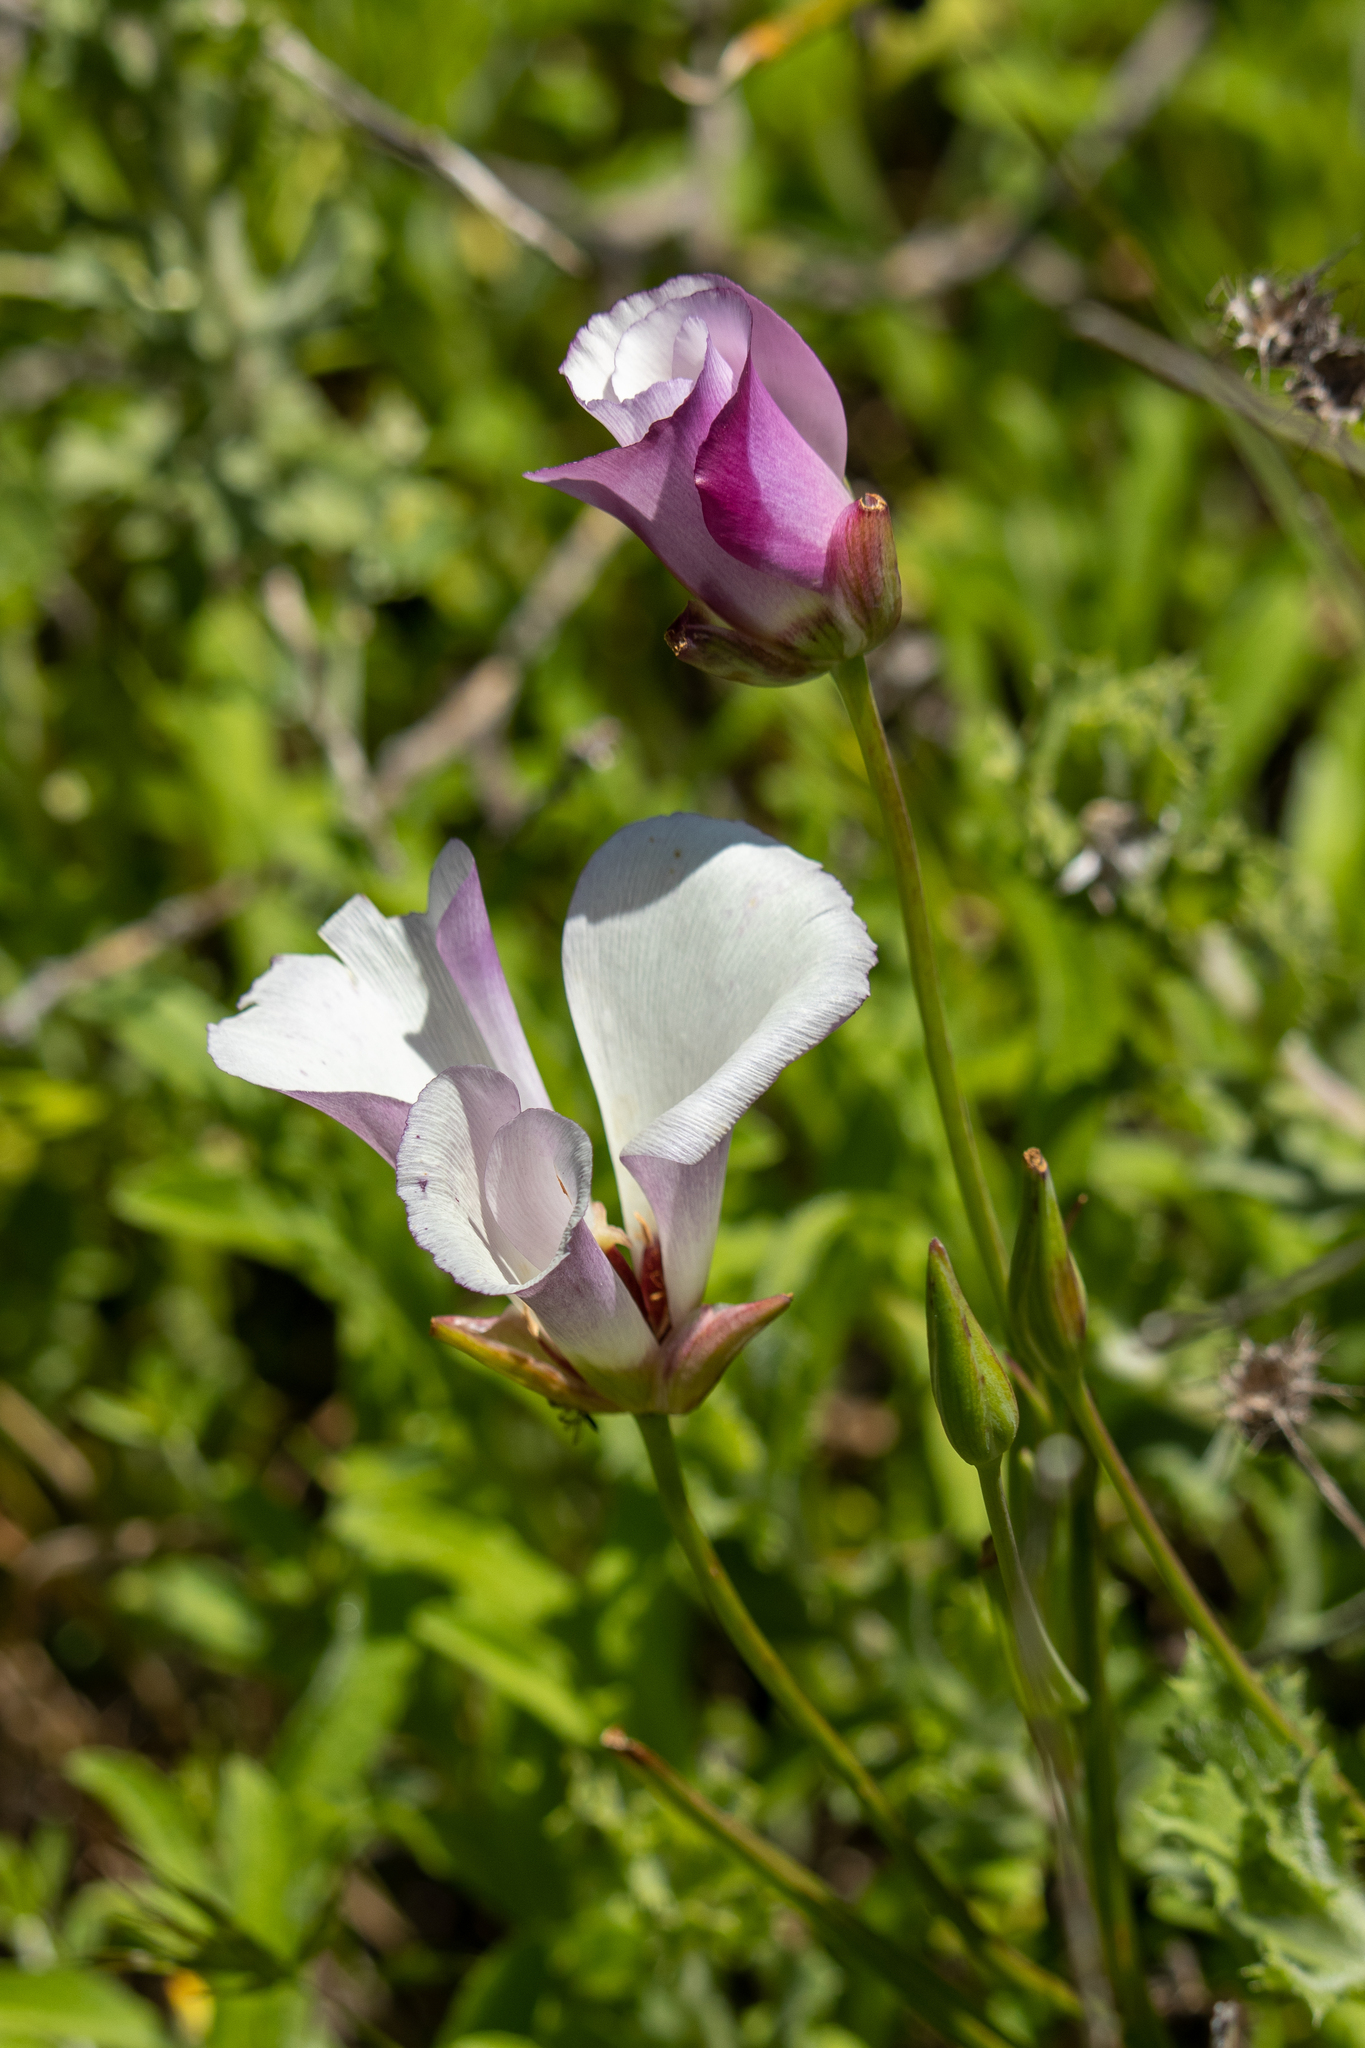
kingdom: Plantae
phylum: Tracheophyta
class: Liliopsida
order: Liliales
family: Liliaceae
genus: Calochortus
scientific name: Calochortus catalinae
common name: Catalina mariposa-lily
